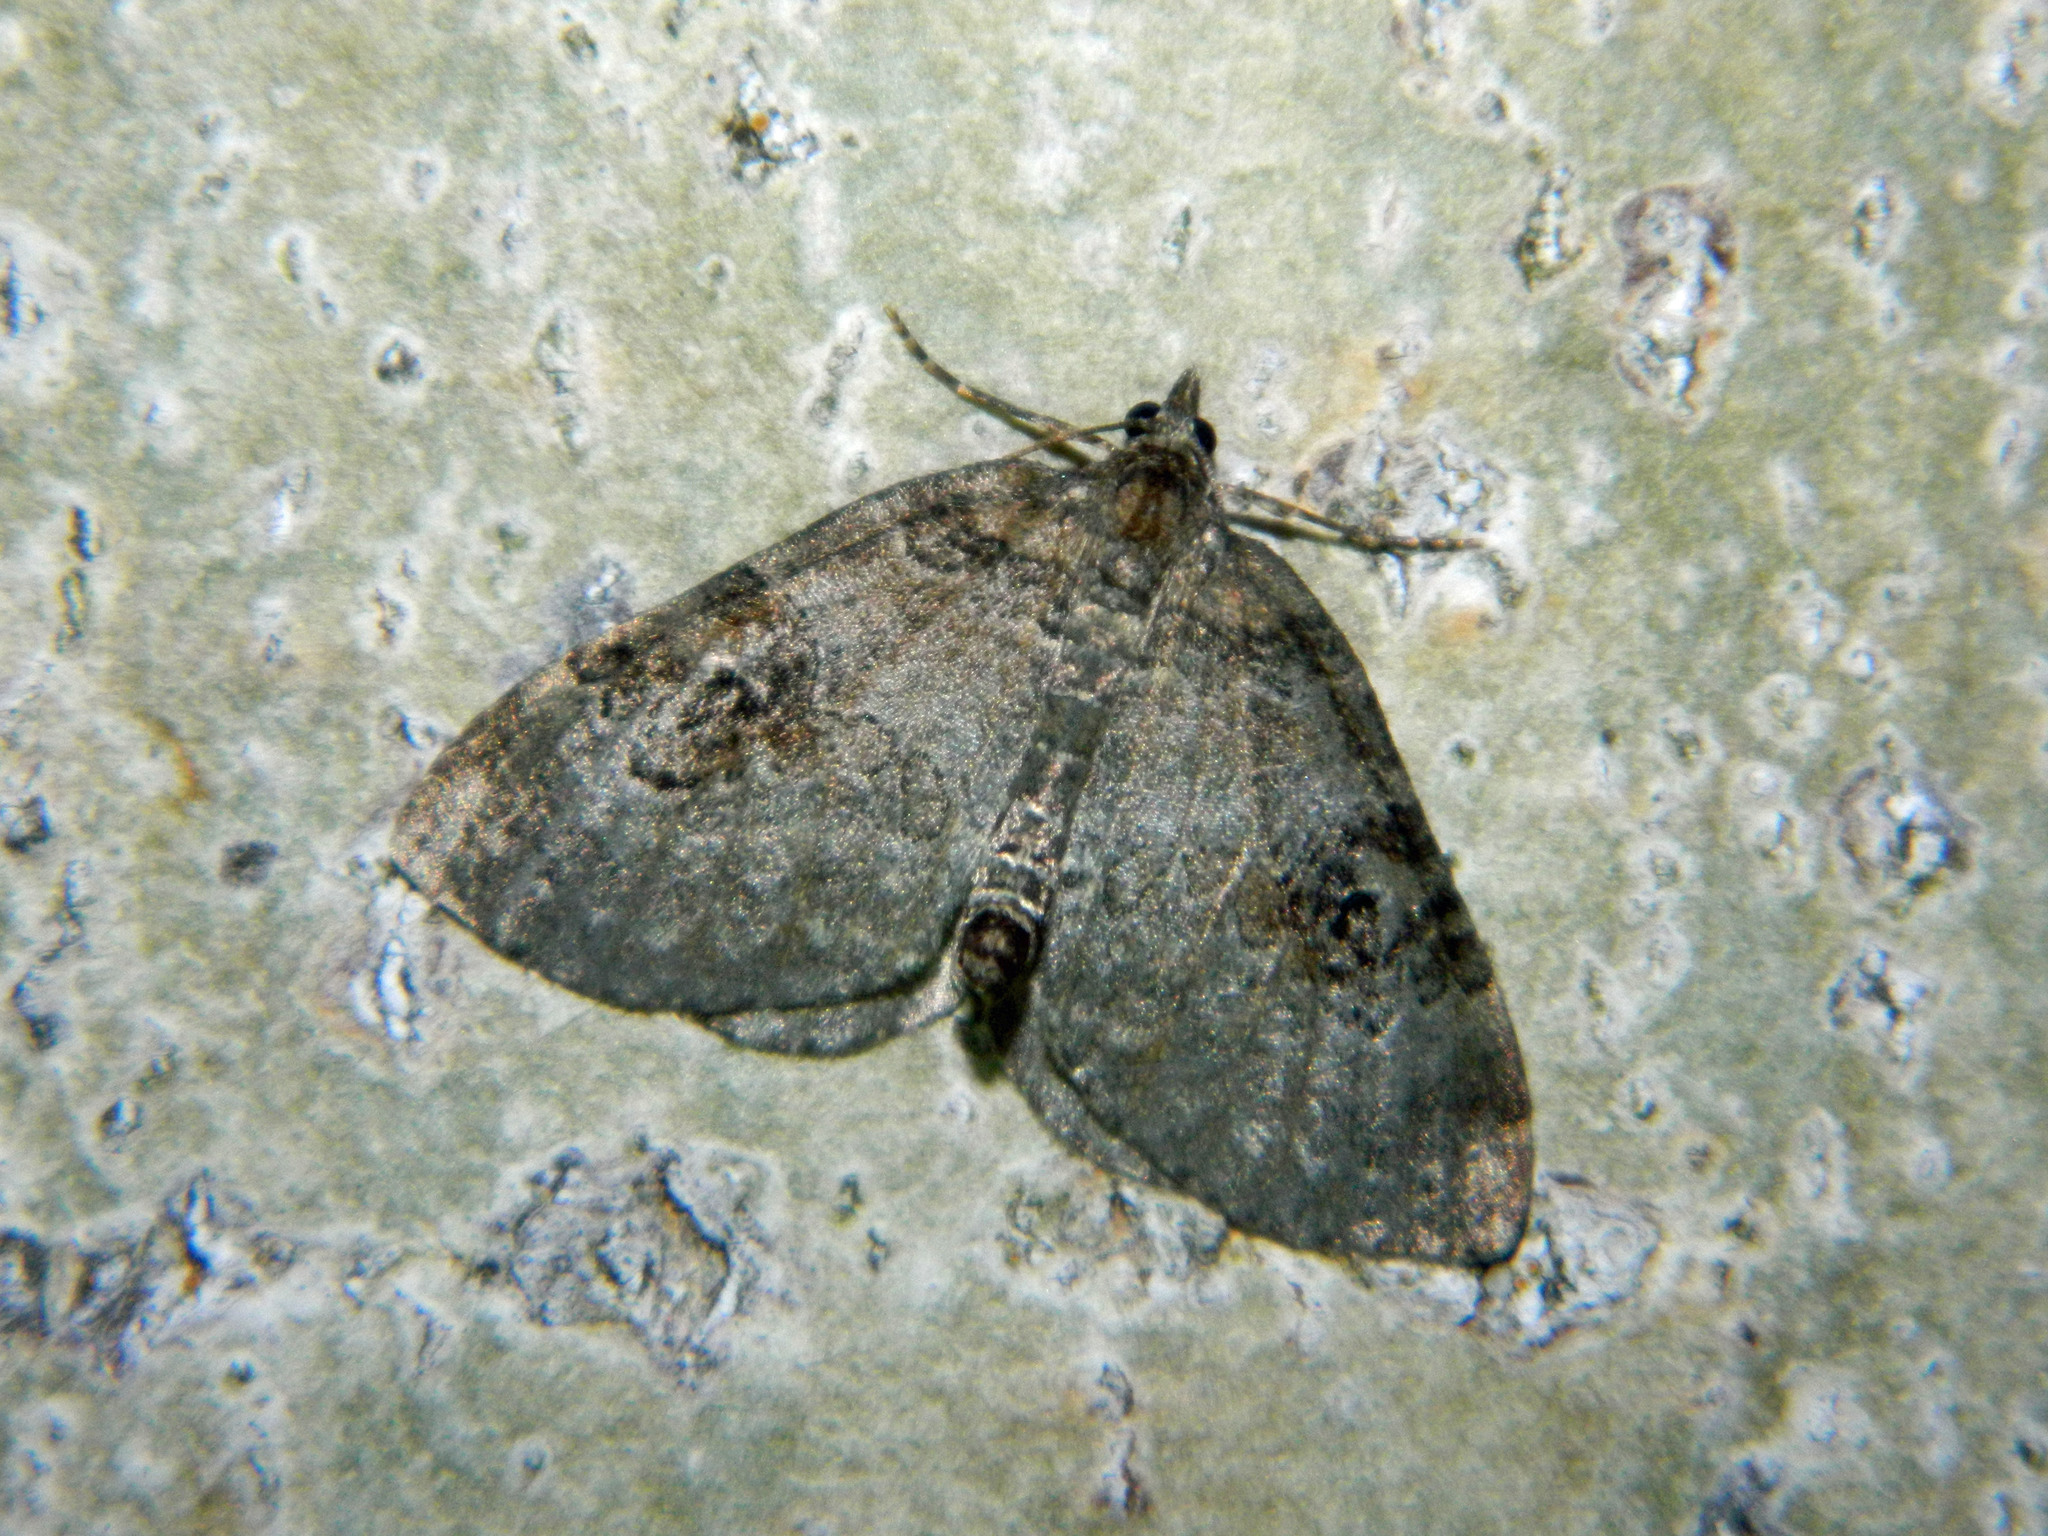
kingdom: Animalia
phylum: Arthropoda
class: Insecta
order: Lepidoptera
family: Geometridae
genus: Plemyria
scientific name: Plemyria georgii
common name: George's carpet moth
